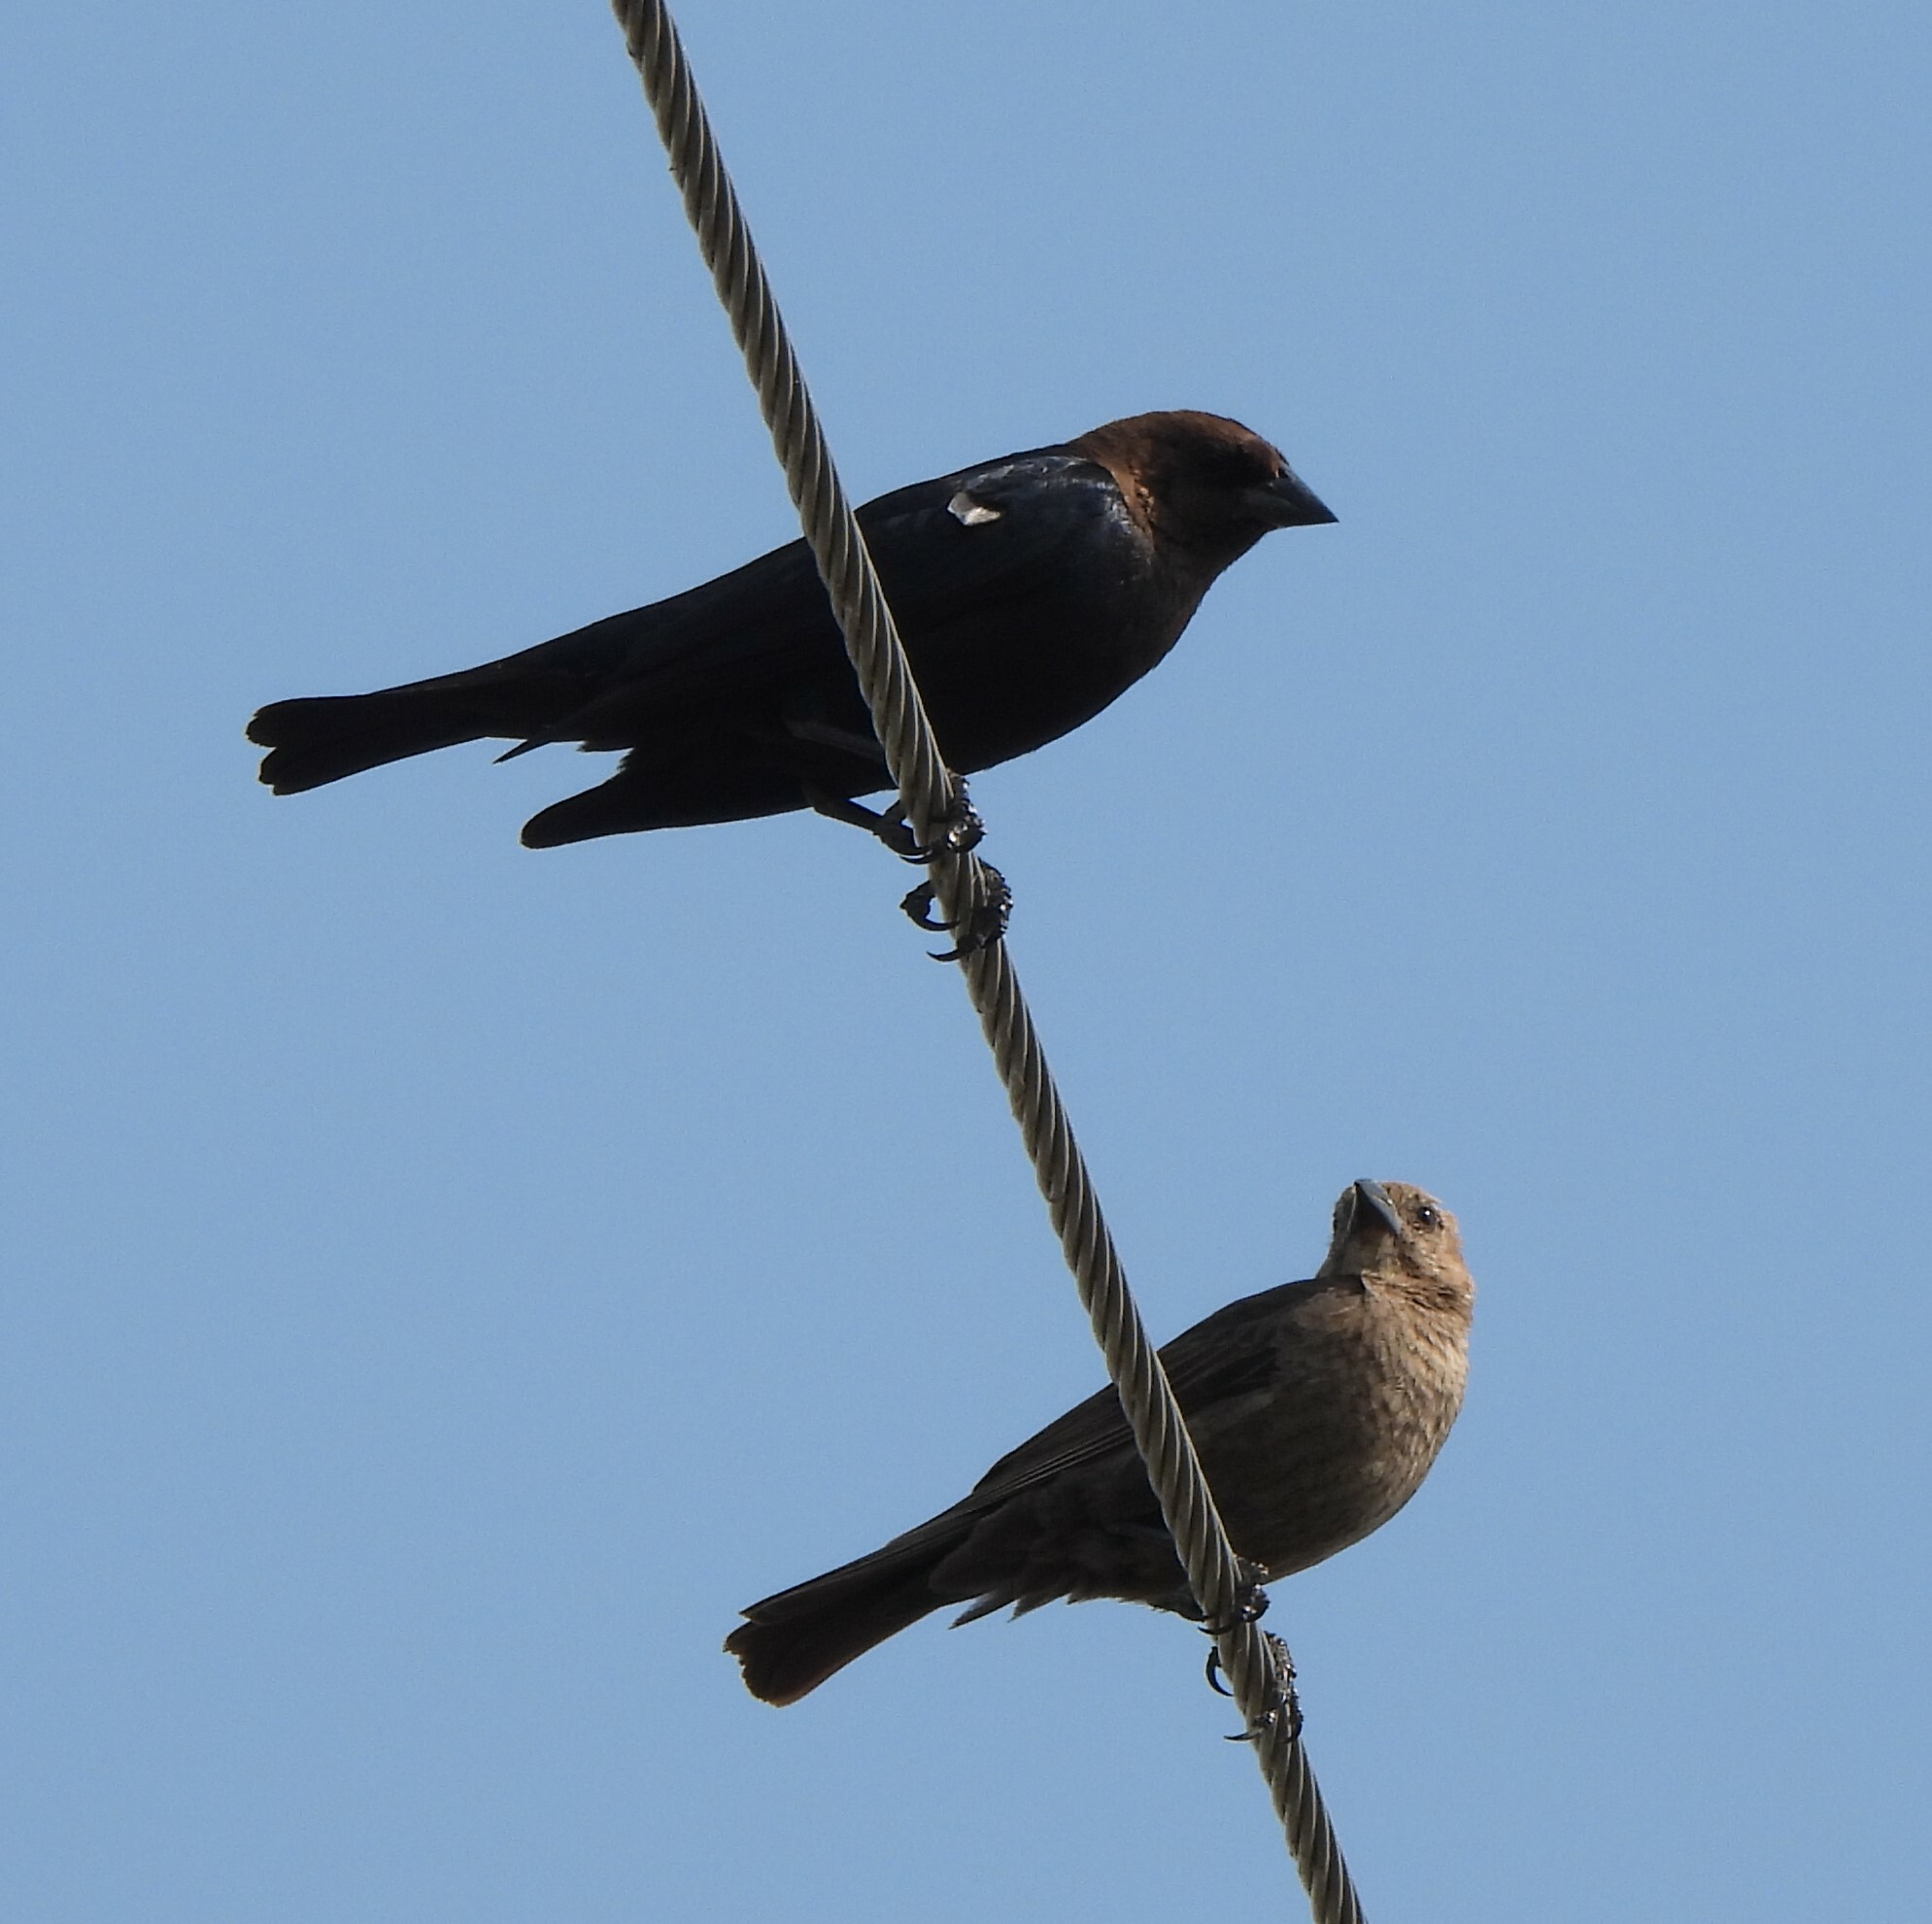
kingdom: Animalia
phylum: Chordata
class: Aves
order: Passeriformes
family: Icteridae
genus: Molothrus
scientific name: Molothrus ater
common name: Brown-headed cowbird
